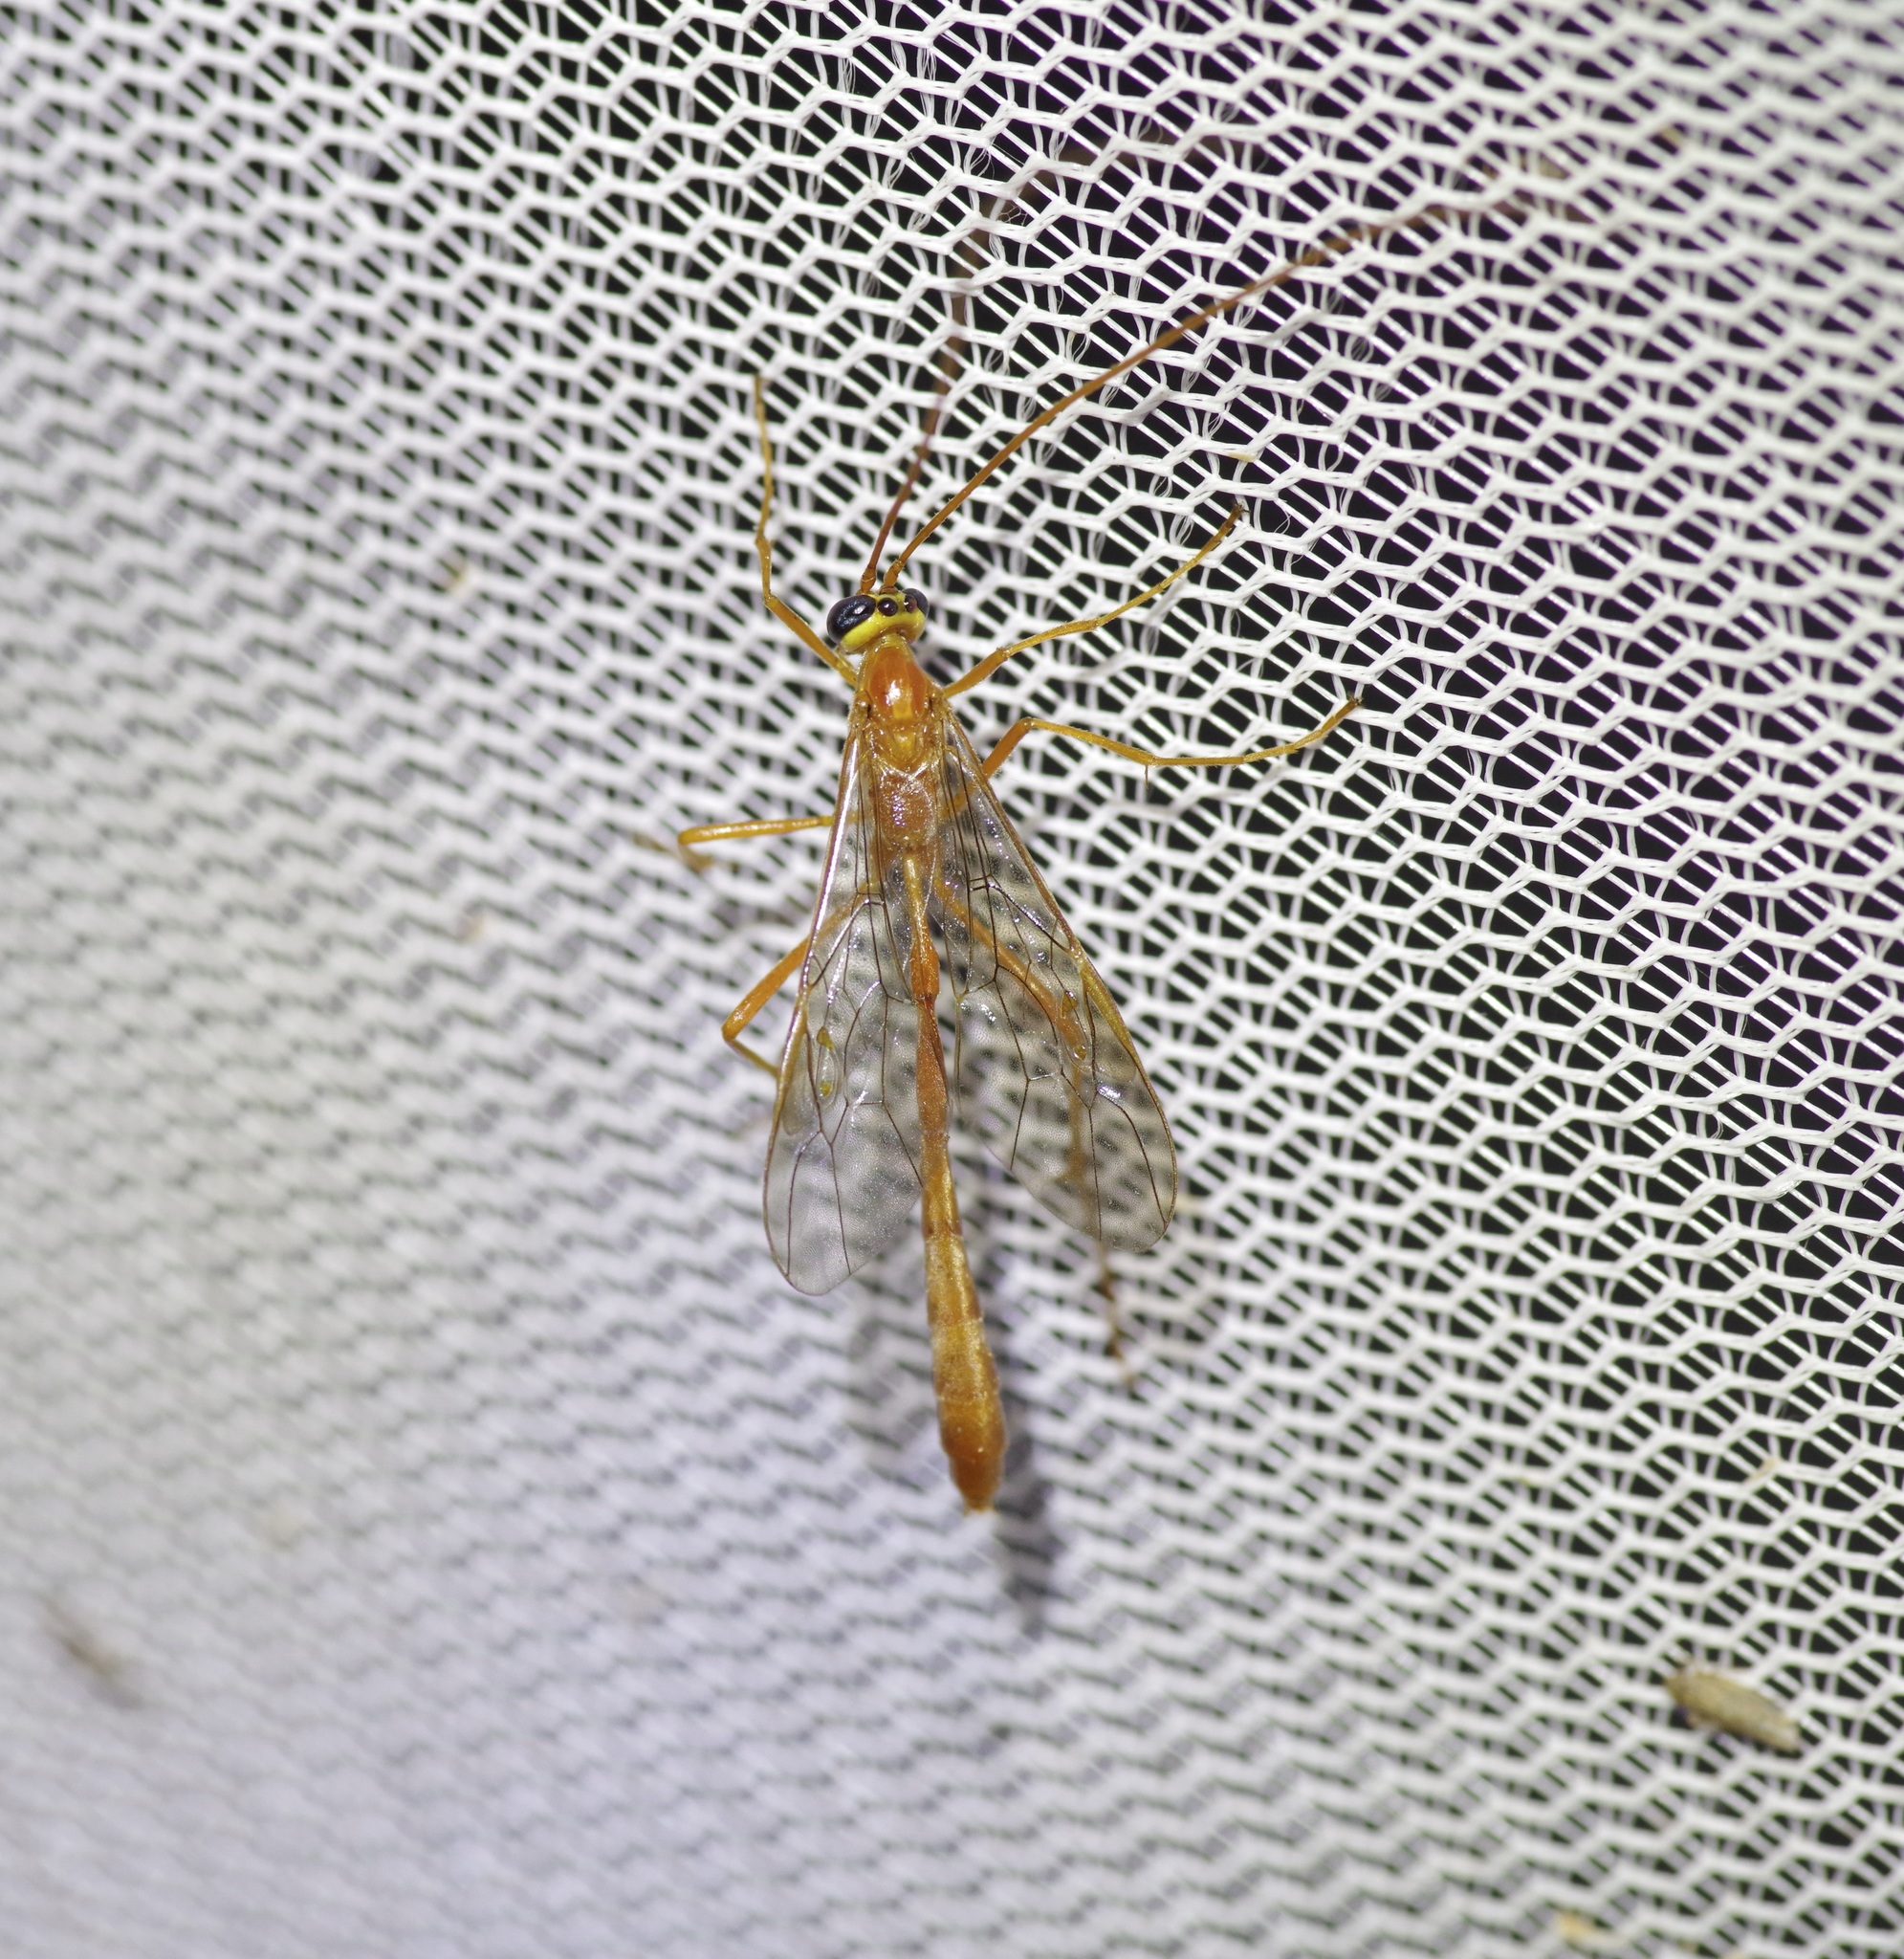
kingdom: Animalia
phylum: Arthropoda
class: Insecta
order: Hymenoptera
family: Ichneumonidae
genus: Enicospilus
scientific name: Enicospilus purgatus
